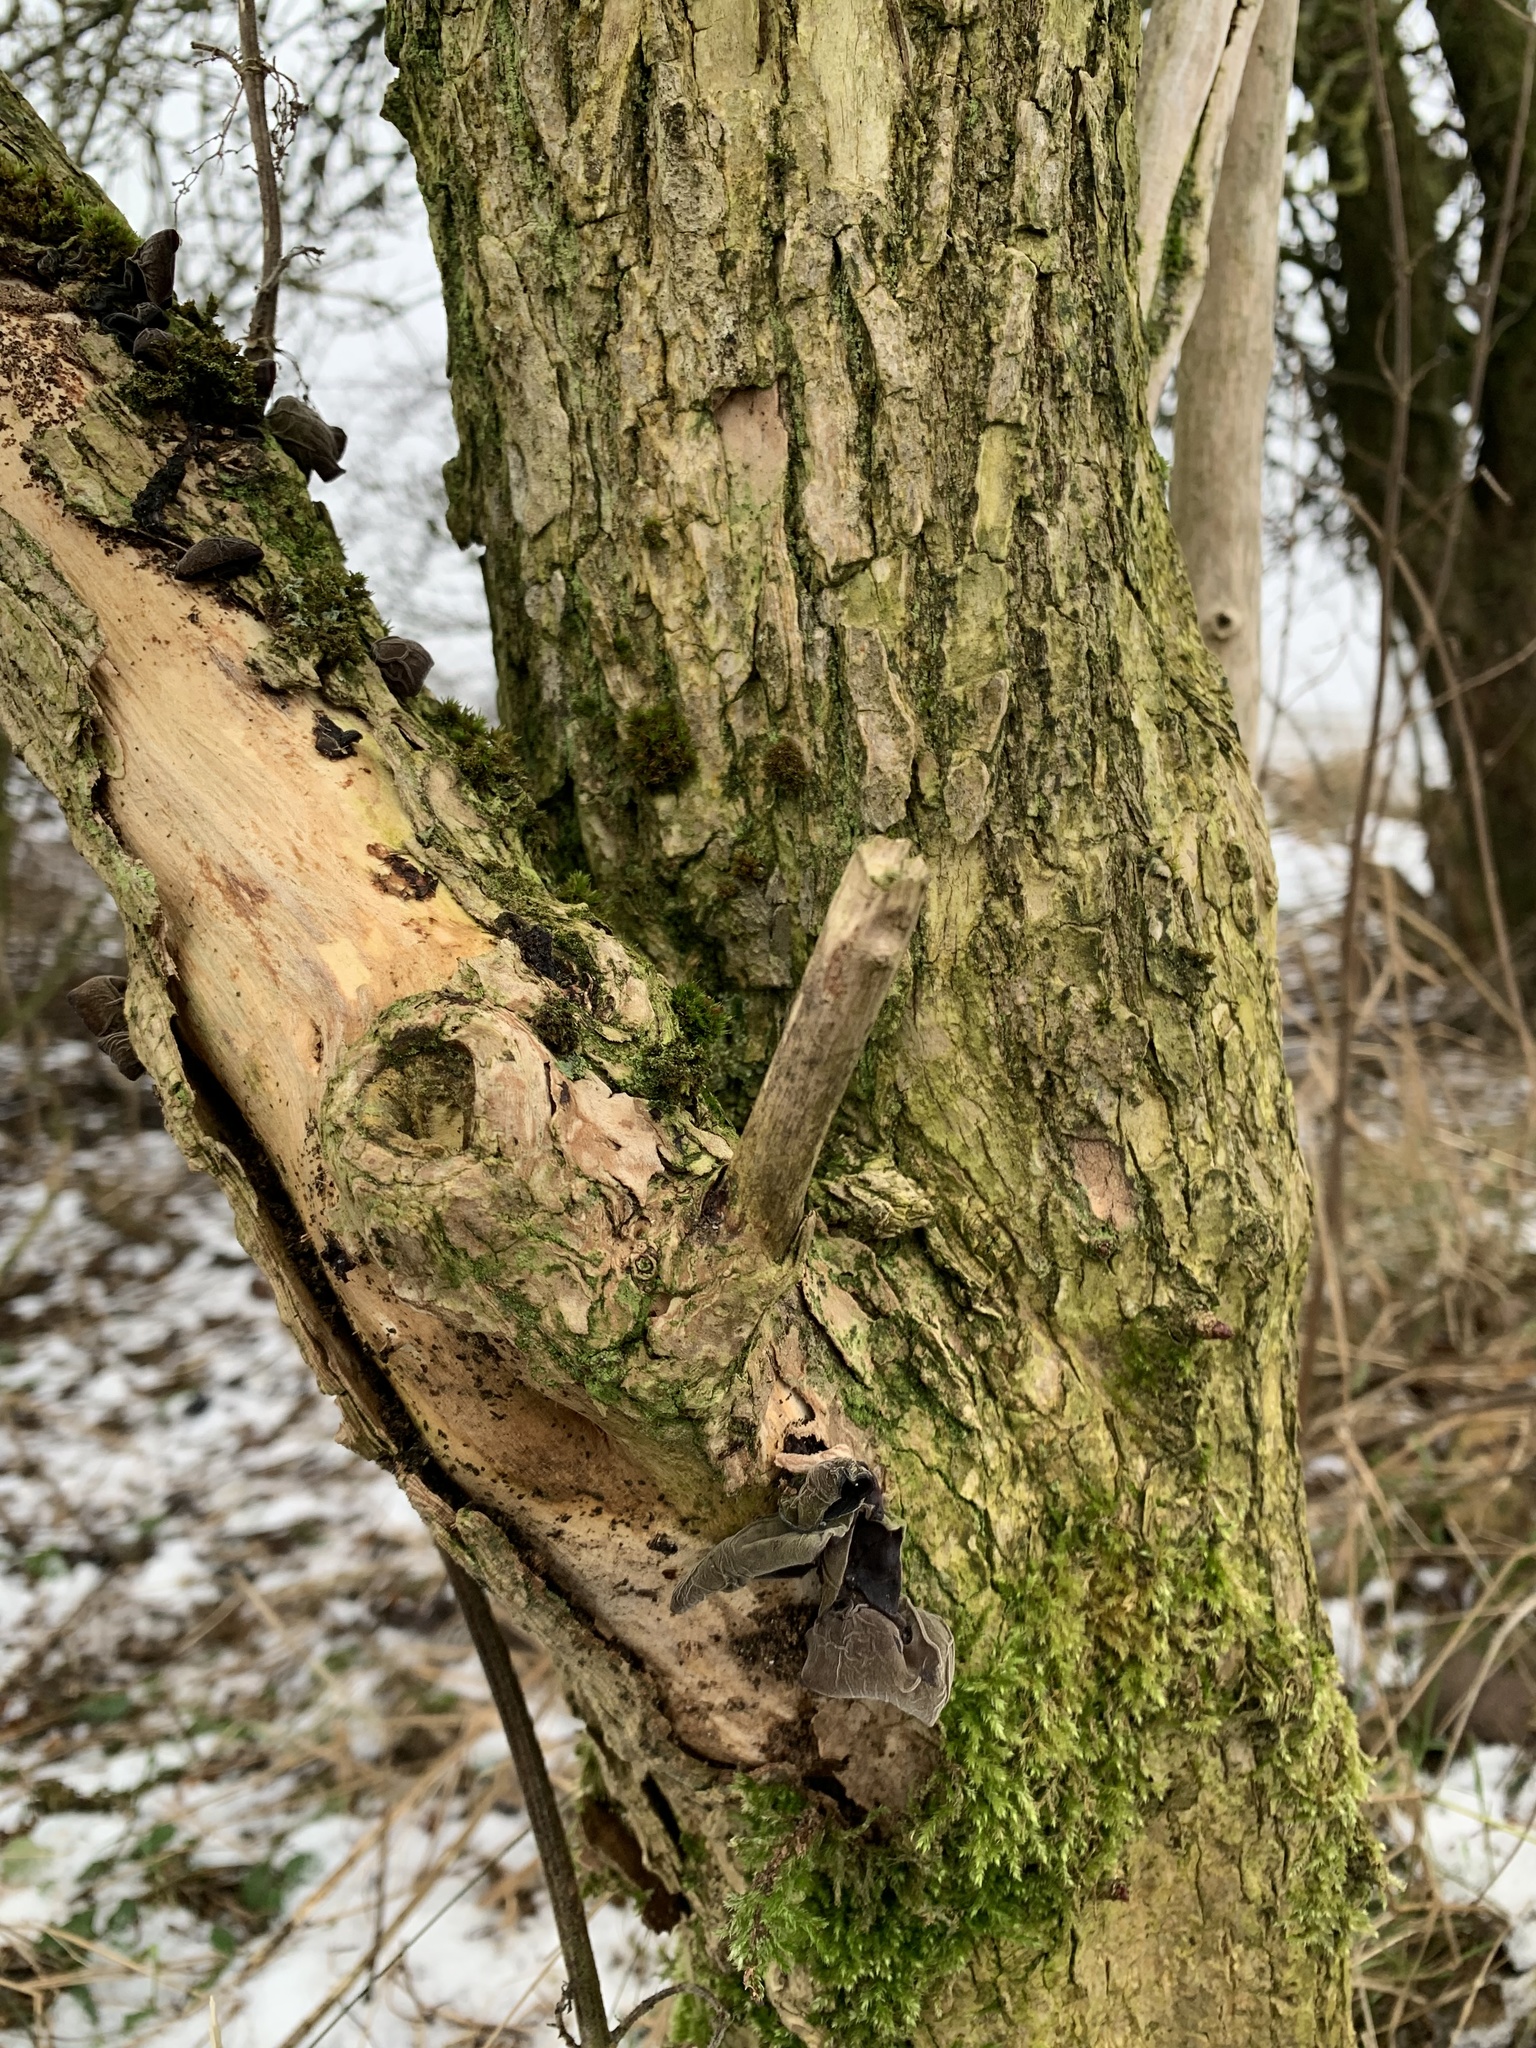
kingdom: Plantae
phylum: Tracheophyta
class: Magnoliopsida
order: Dipsacales
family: Viburnaceae
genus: Sambucus
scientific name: Sambucus nigra
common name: Elder
